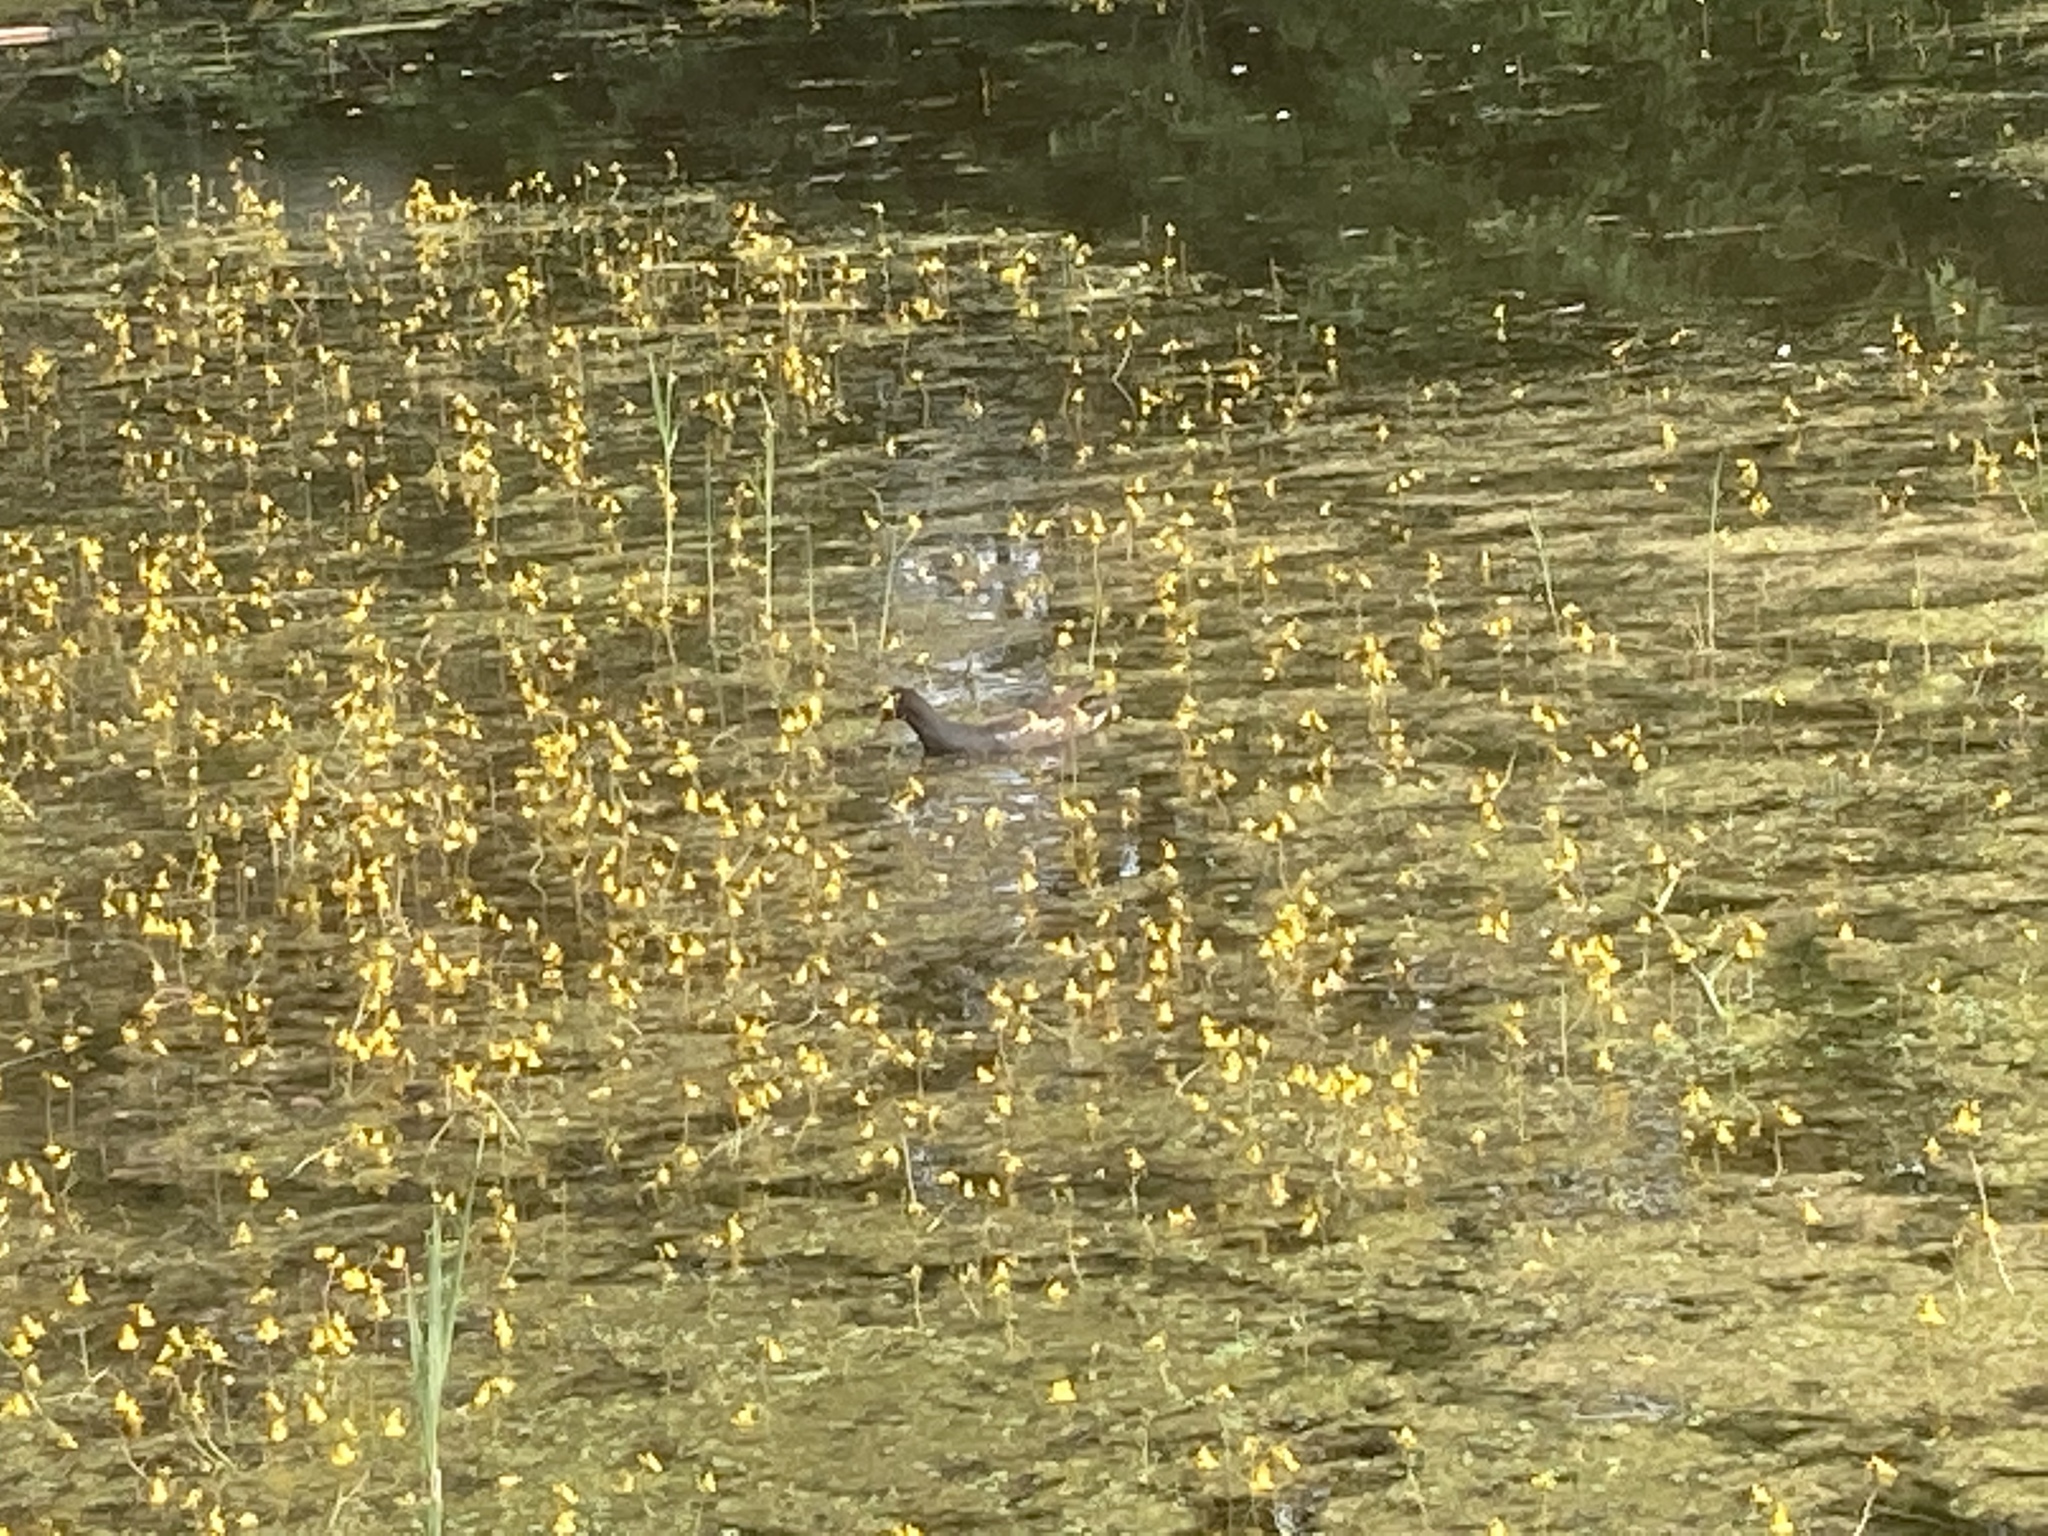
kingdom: Animalia
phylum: Chordata
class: Aves
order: Gruiformes
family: Rallidae
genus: Gallinula
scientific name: Gallinula chloropus
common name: Common moorhen
